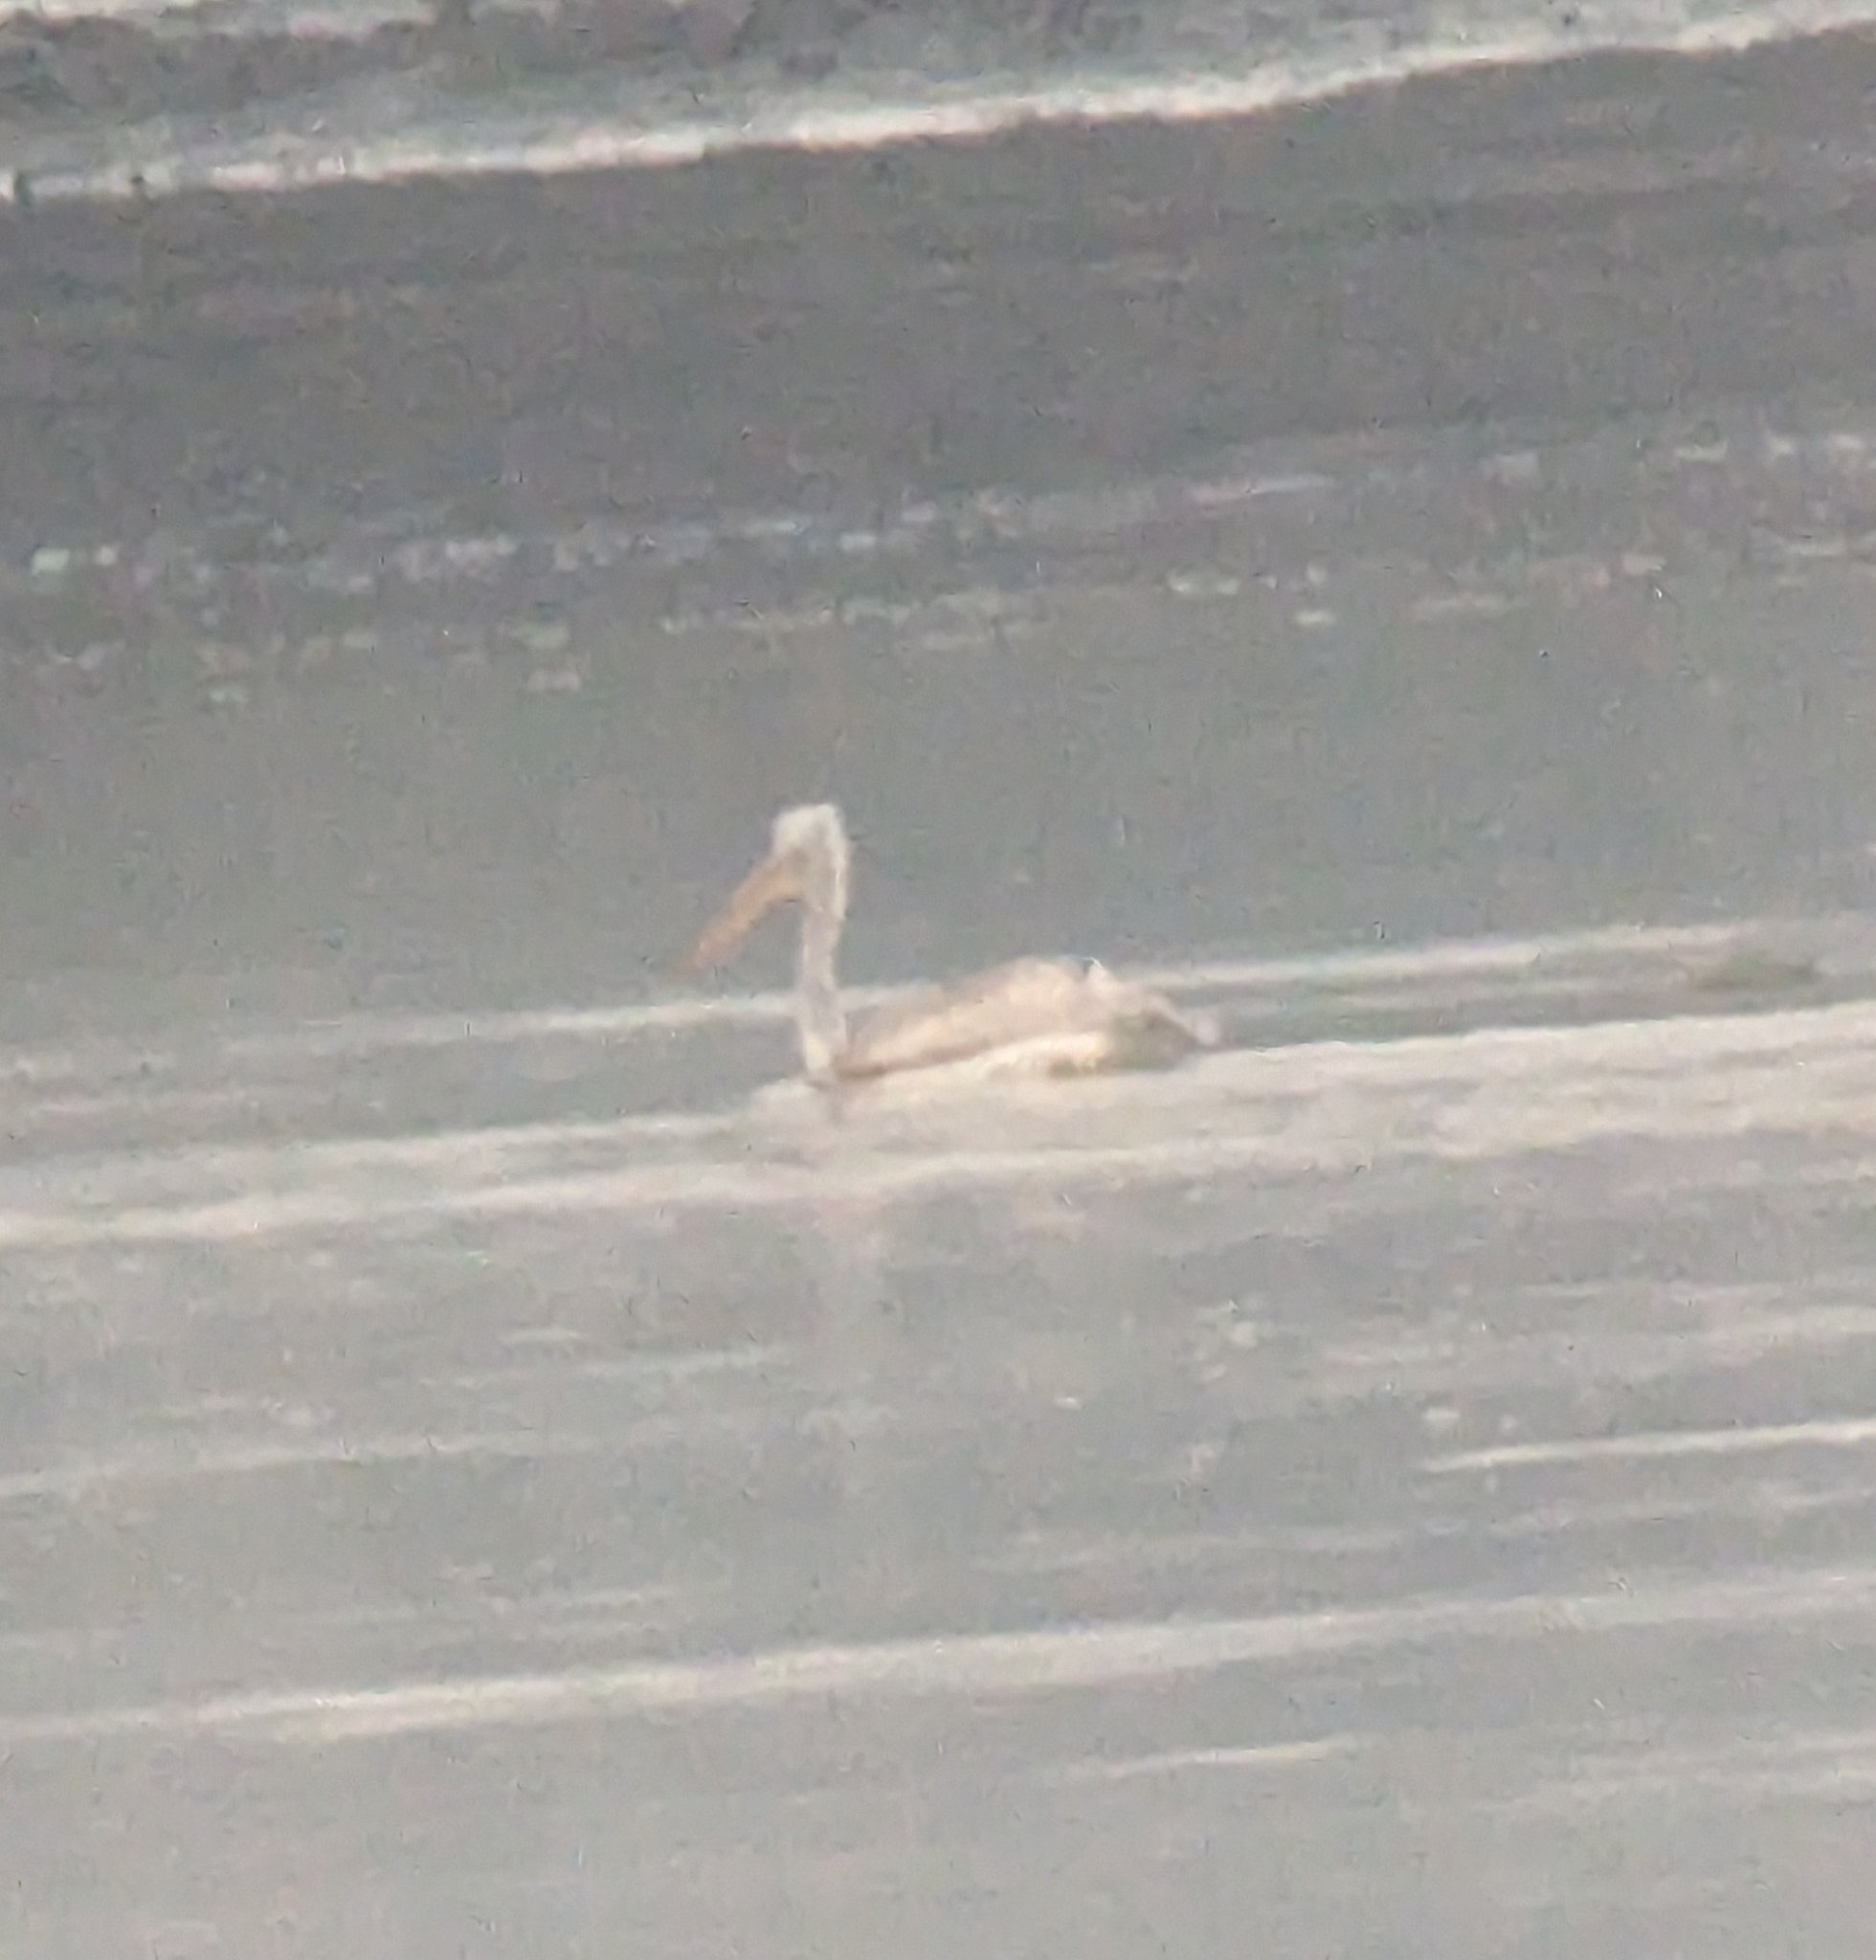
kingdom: Animalia
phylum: Chordata
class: Aves
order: Pelecaniformes
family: Pelecanidae
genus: Pelecanus
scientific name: Pelecanus crispus
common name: Dalmatian pelican
